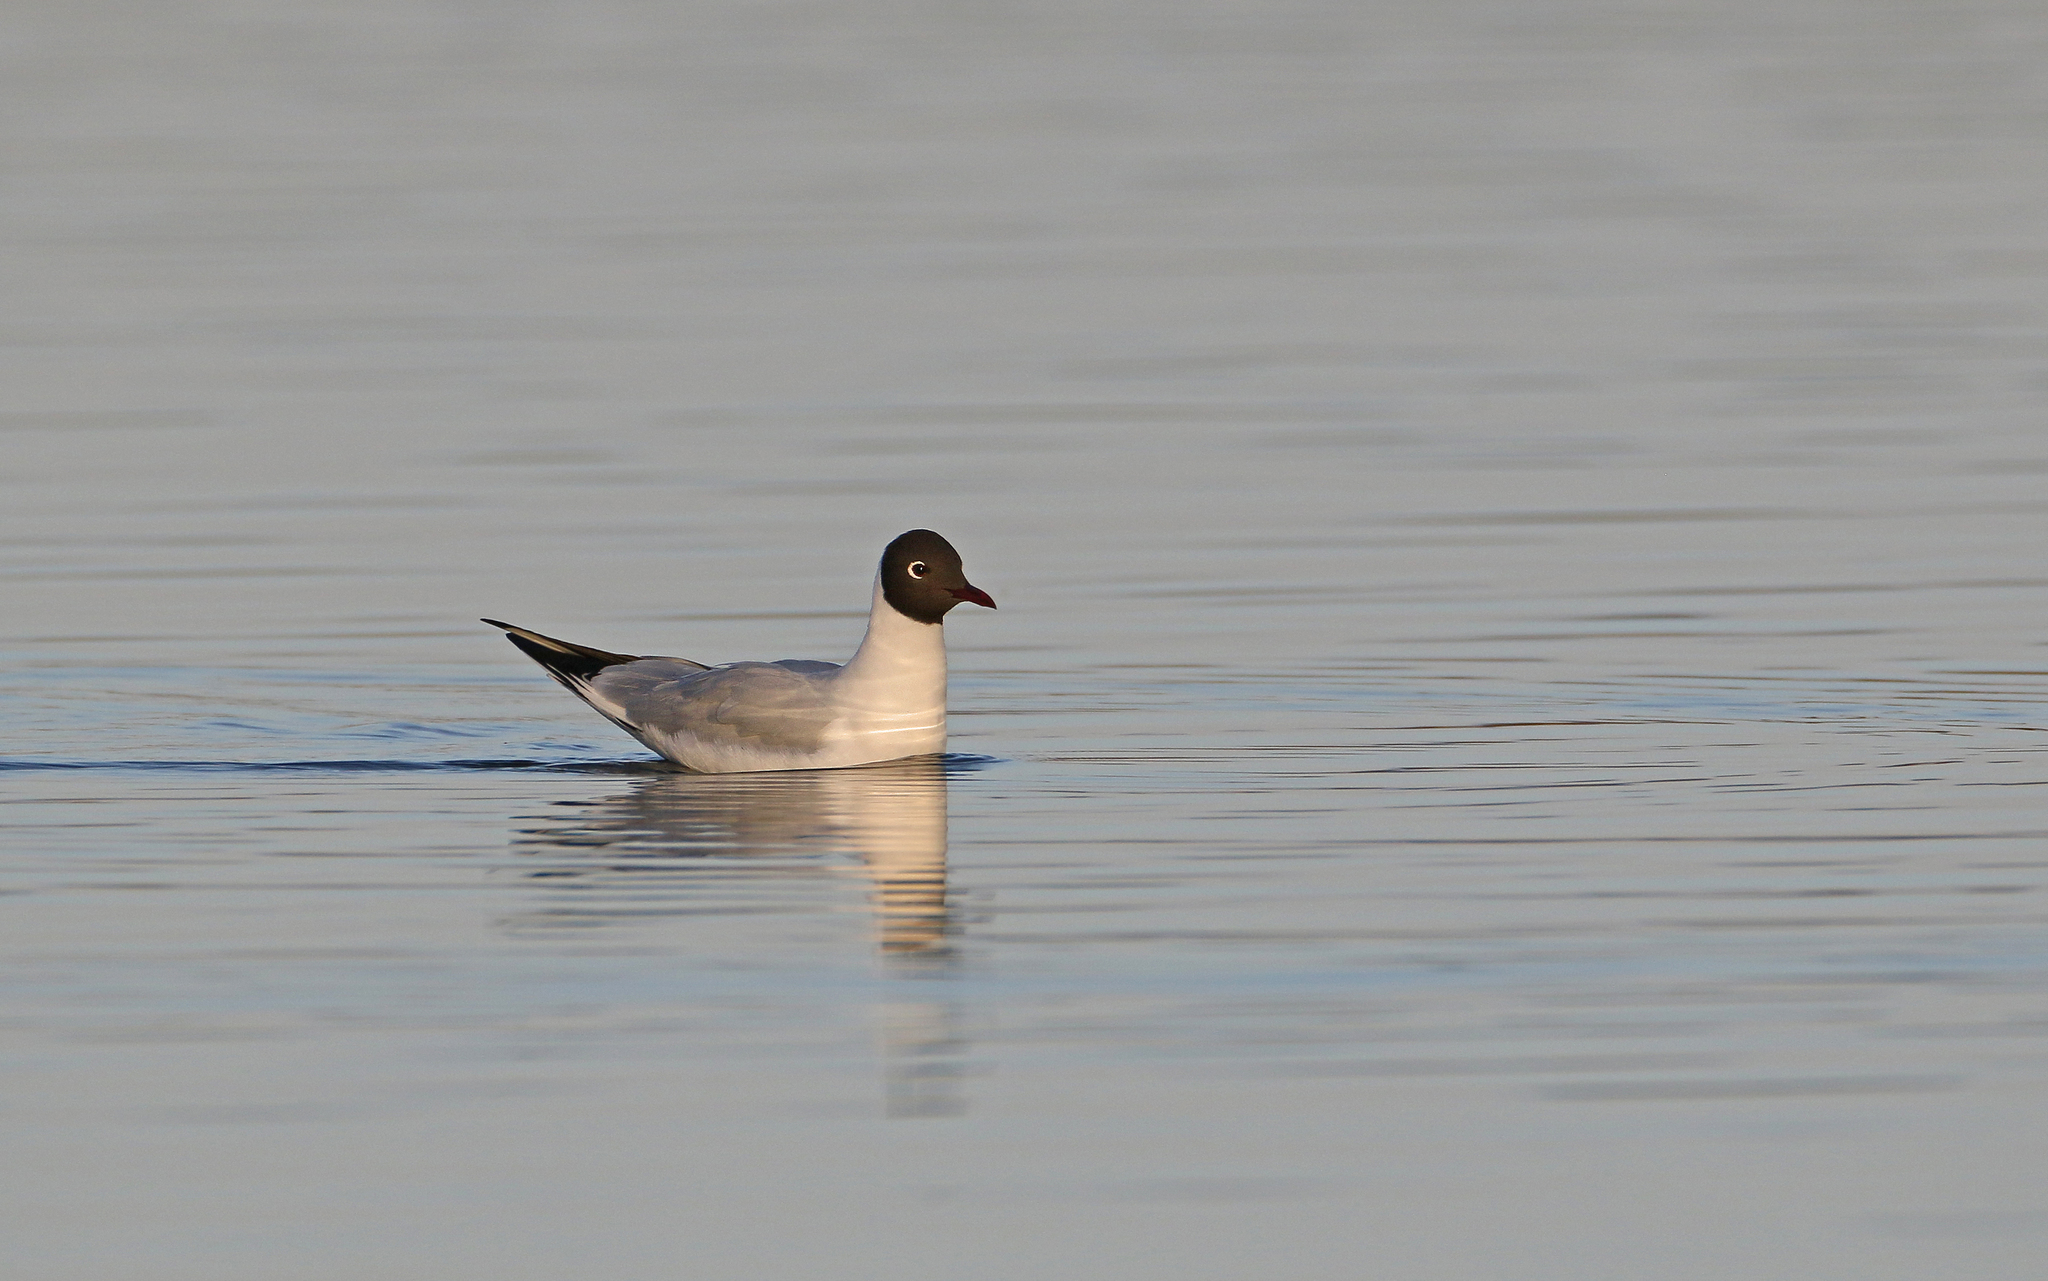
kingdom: Animalia
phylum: Chordata
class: Aves
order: Charadriiformes
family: Laridae
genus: Chroicocephalus
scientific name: Chroicocephalus ridibundus
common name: Black-headed gull
